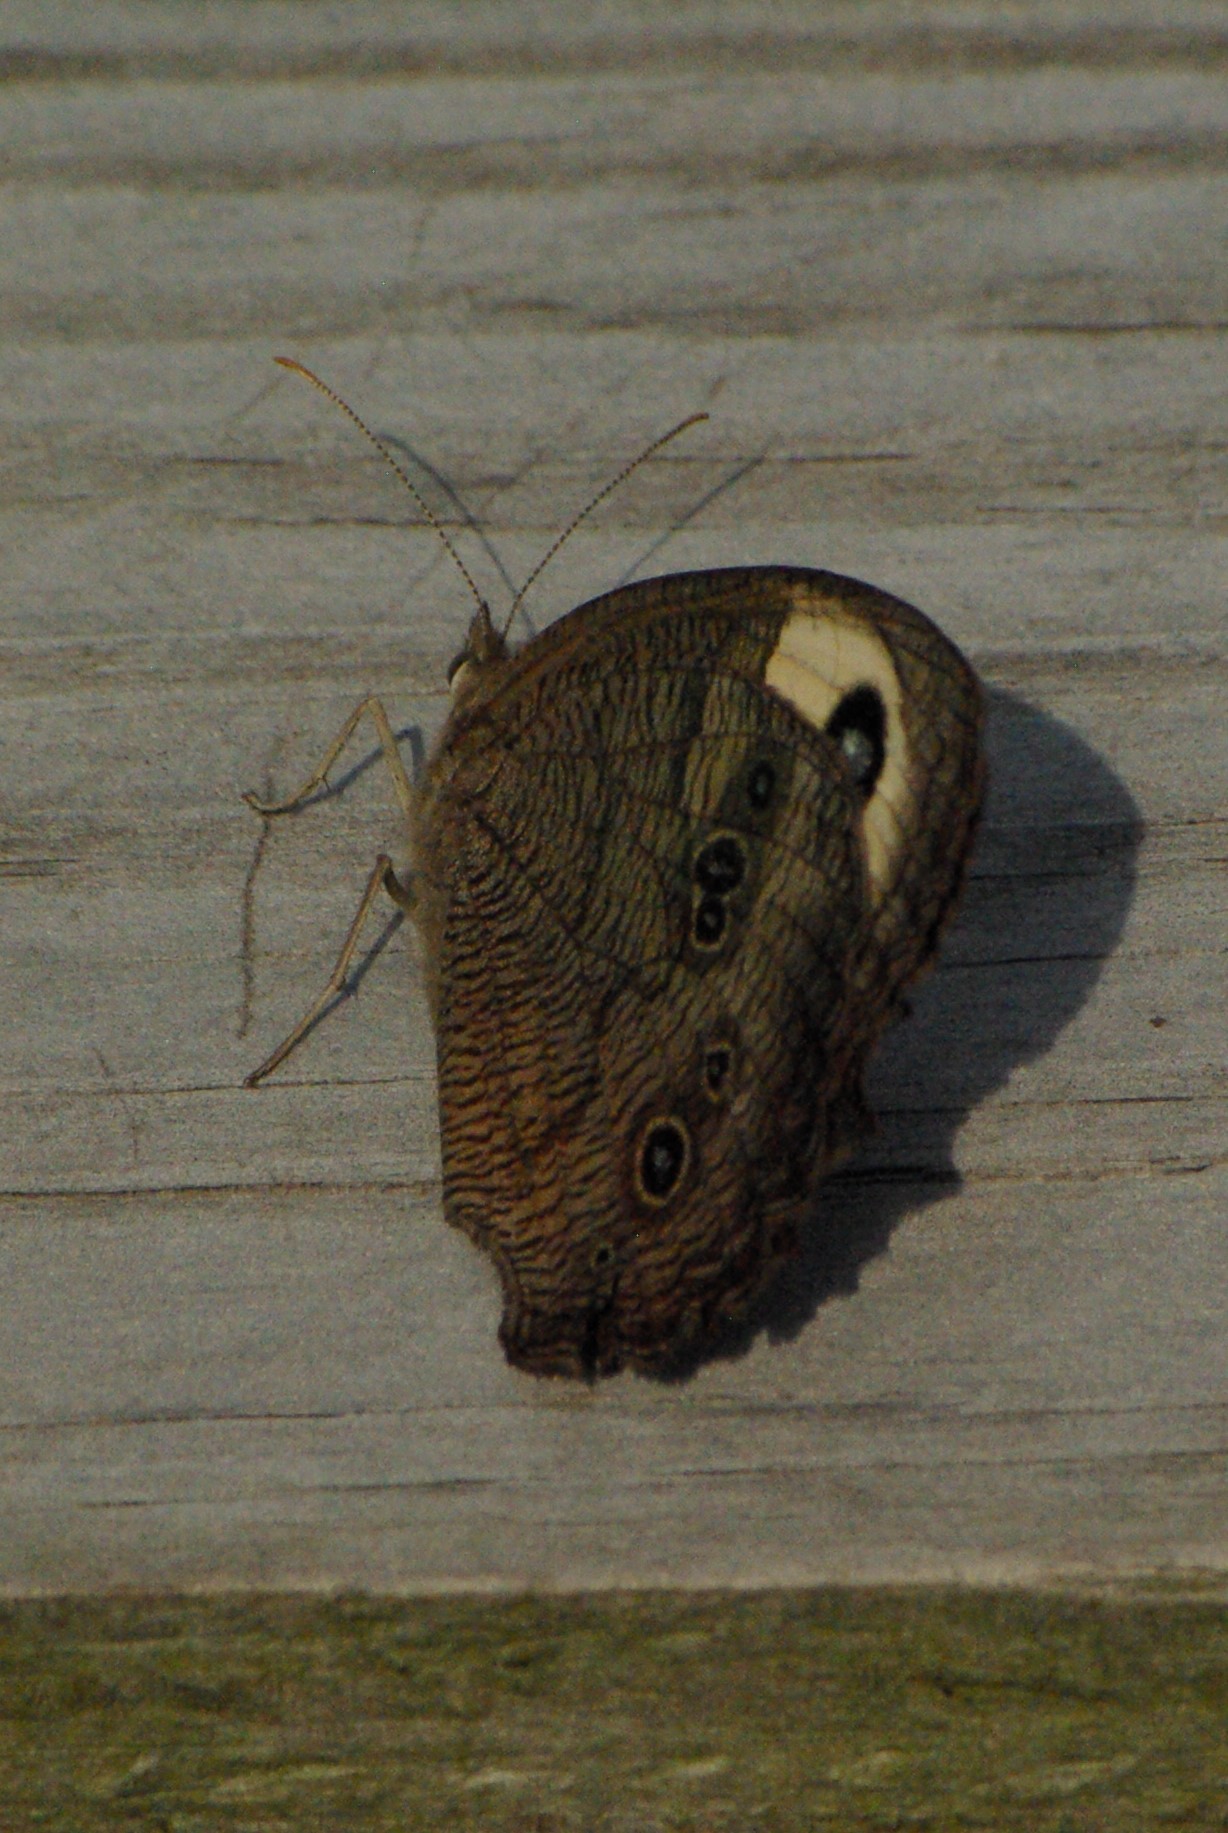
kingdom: Animalia
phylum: Arthropoda
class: Insecta
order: Lepidoptera
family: Nymphalidae
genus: Cercyonis
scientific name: Cercyonis pegala
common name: Common wood-nymph
